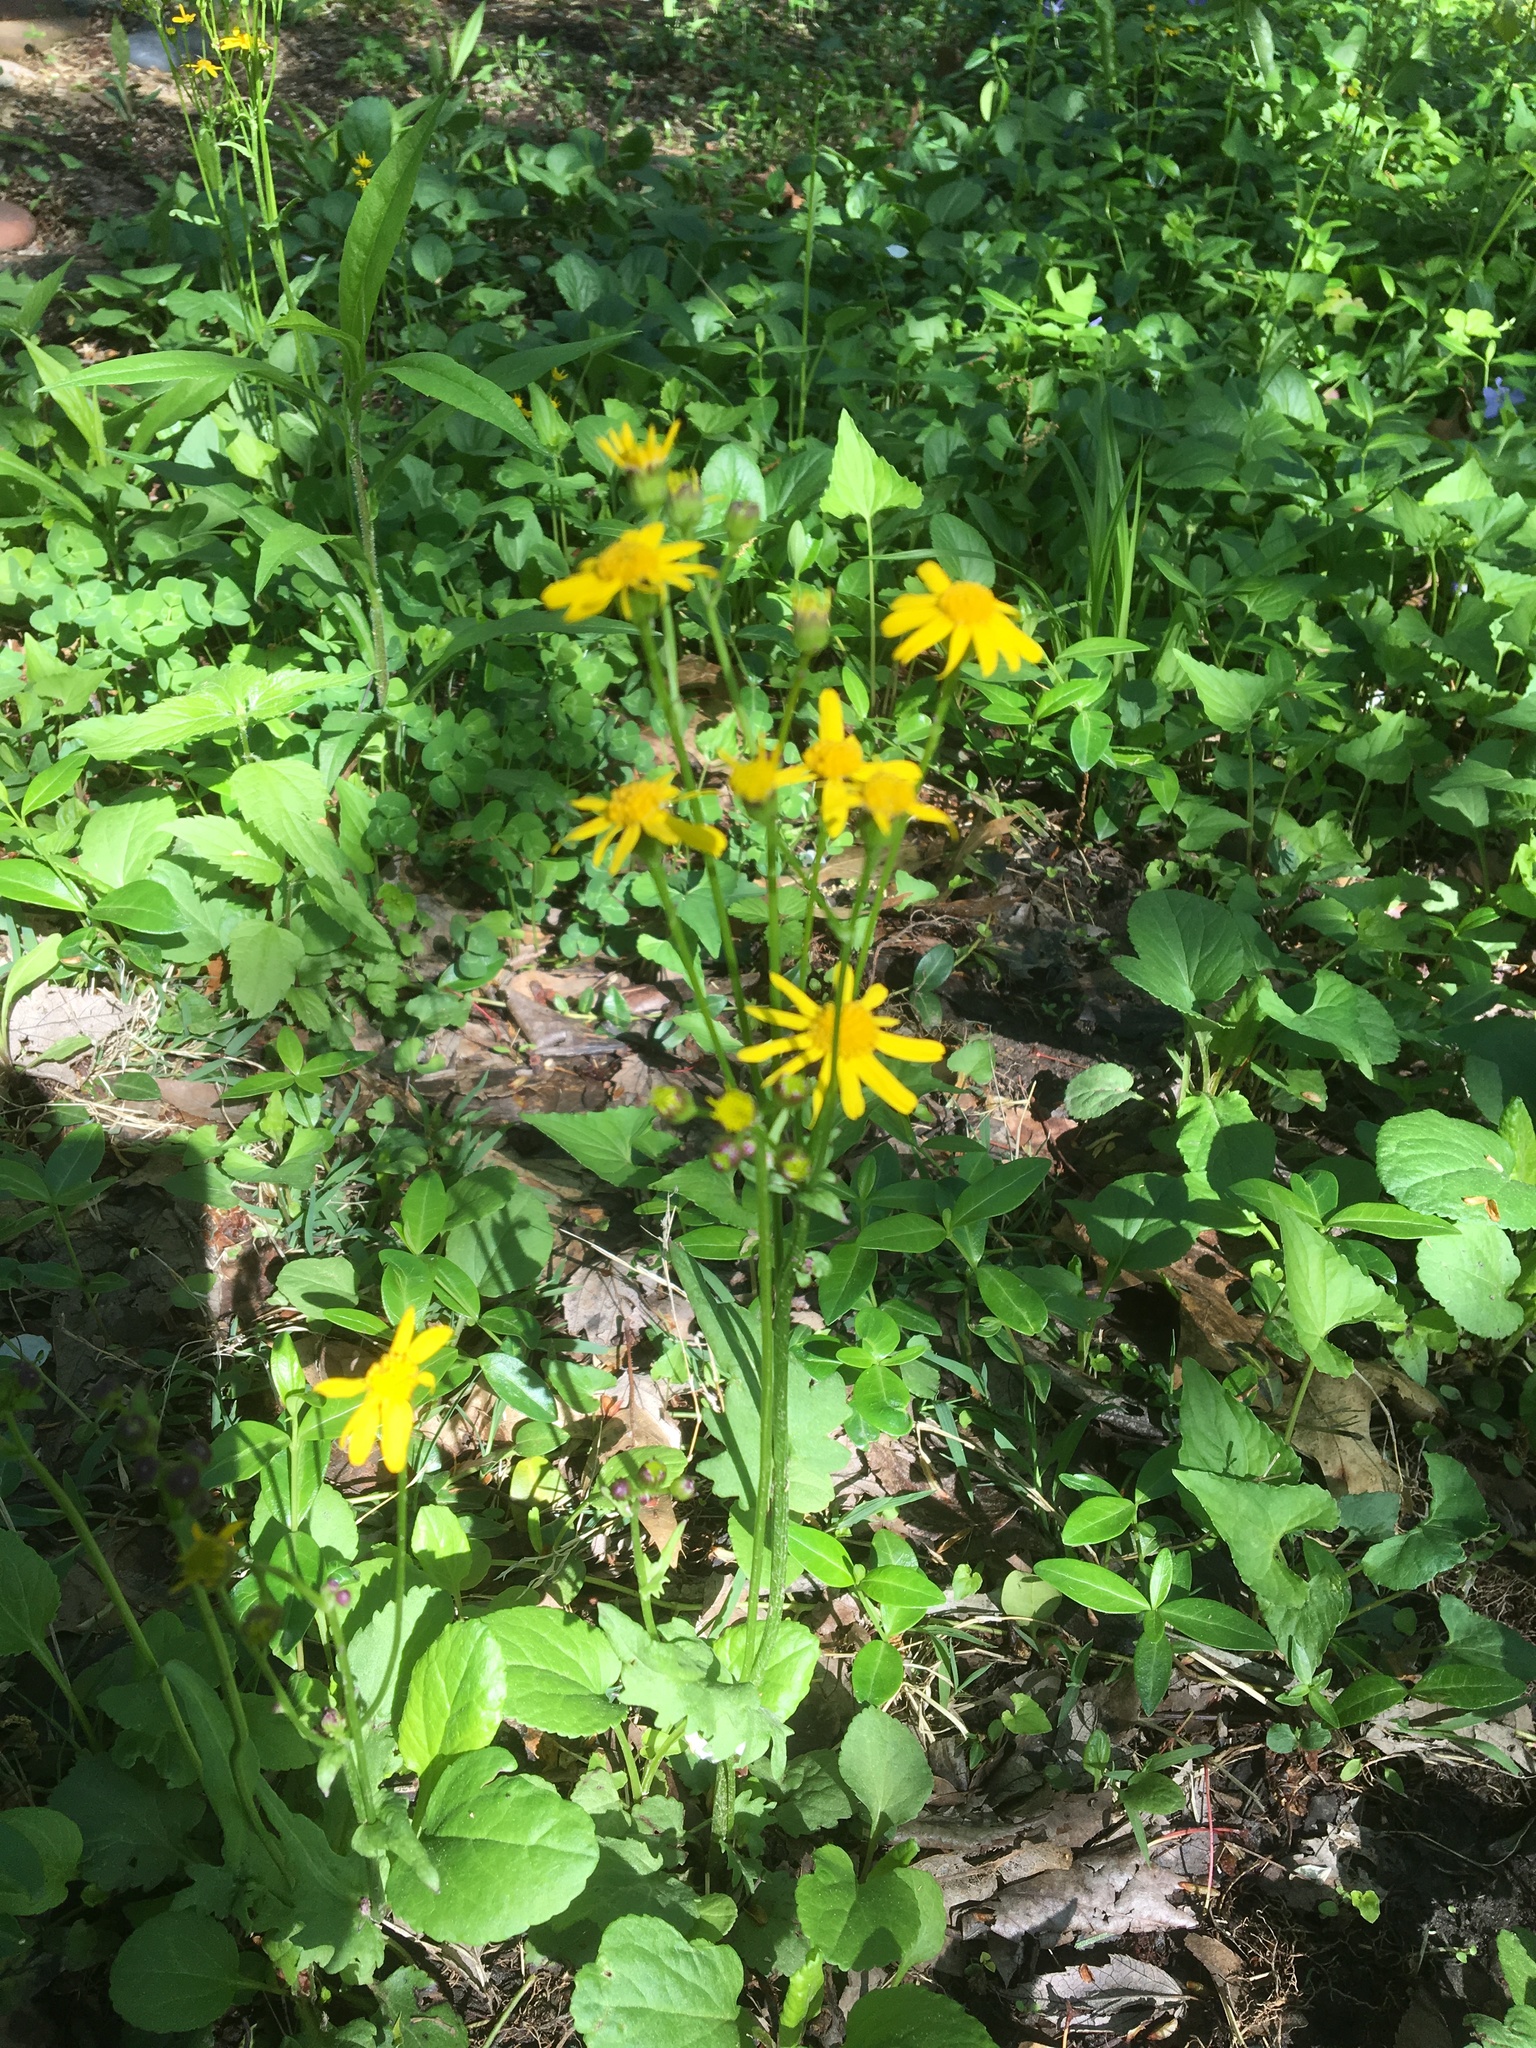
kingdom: Plantae
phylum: Tracheophyta
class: Magnoliopsida
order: Asterales
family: Asteraceae
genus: Packera
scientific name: Packera obovata
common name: Round-leaf ragwort
